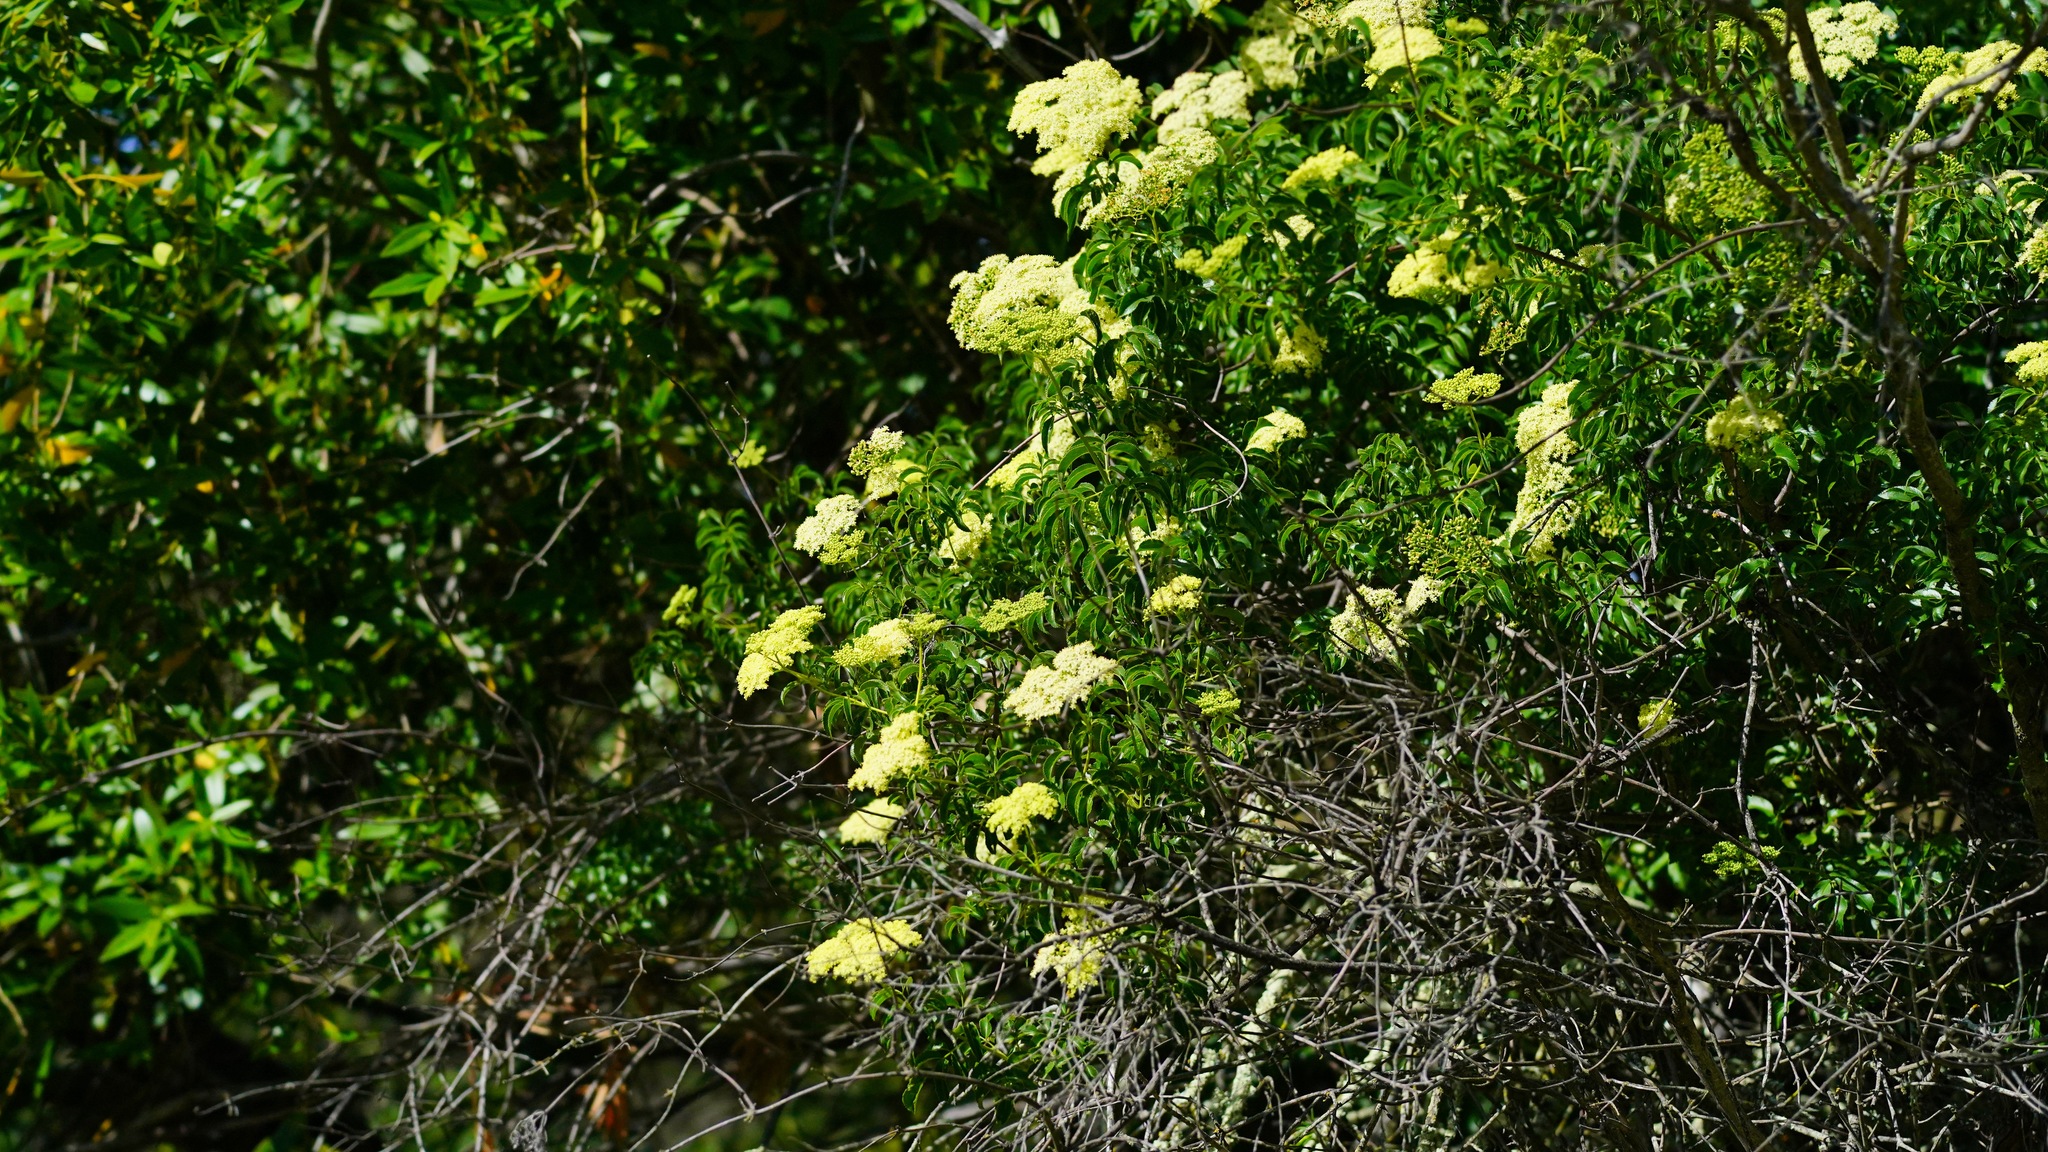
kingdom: Plantae
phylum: Tracheophyta
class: Magnoliopsida
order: Dipsacales
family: Viburnaceae
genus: Sambucus
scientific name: Sambucus cerulea
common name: Blue elder
